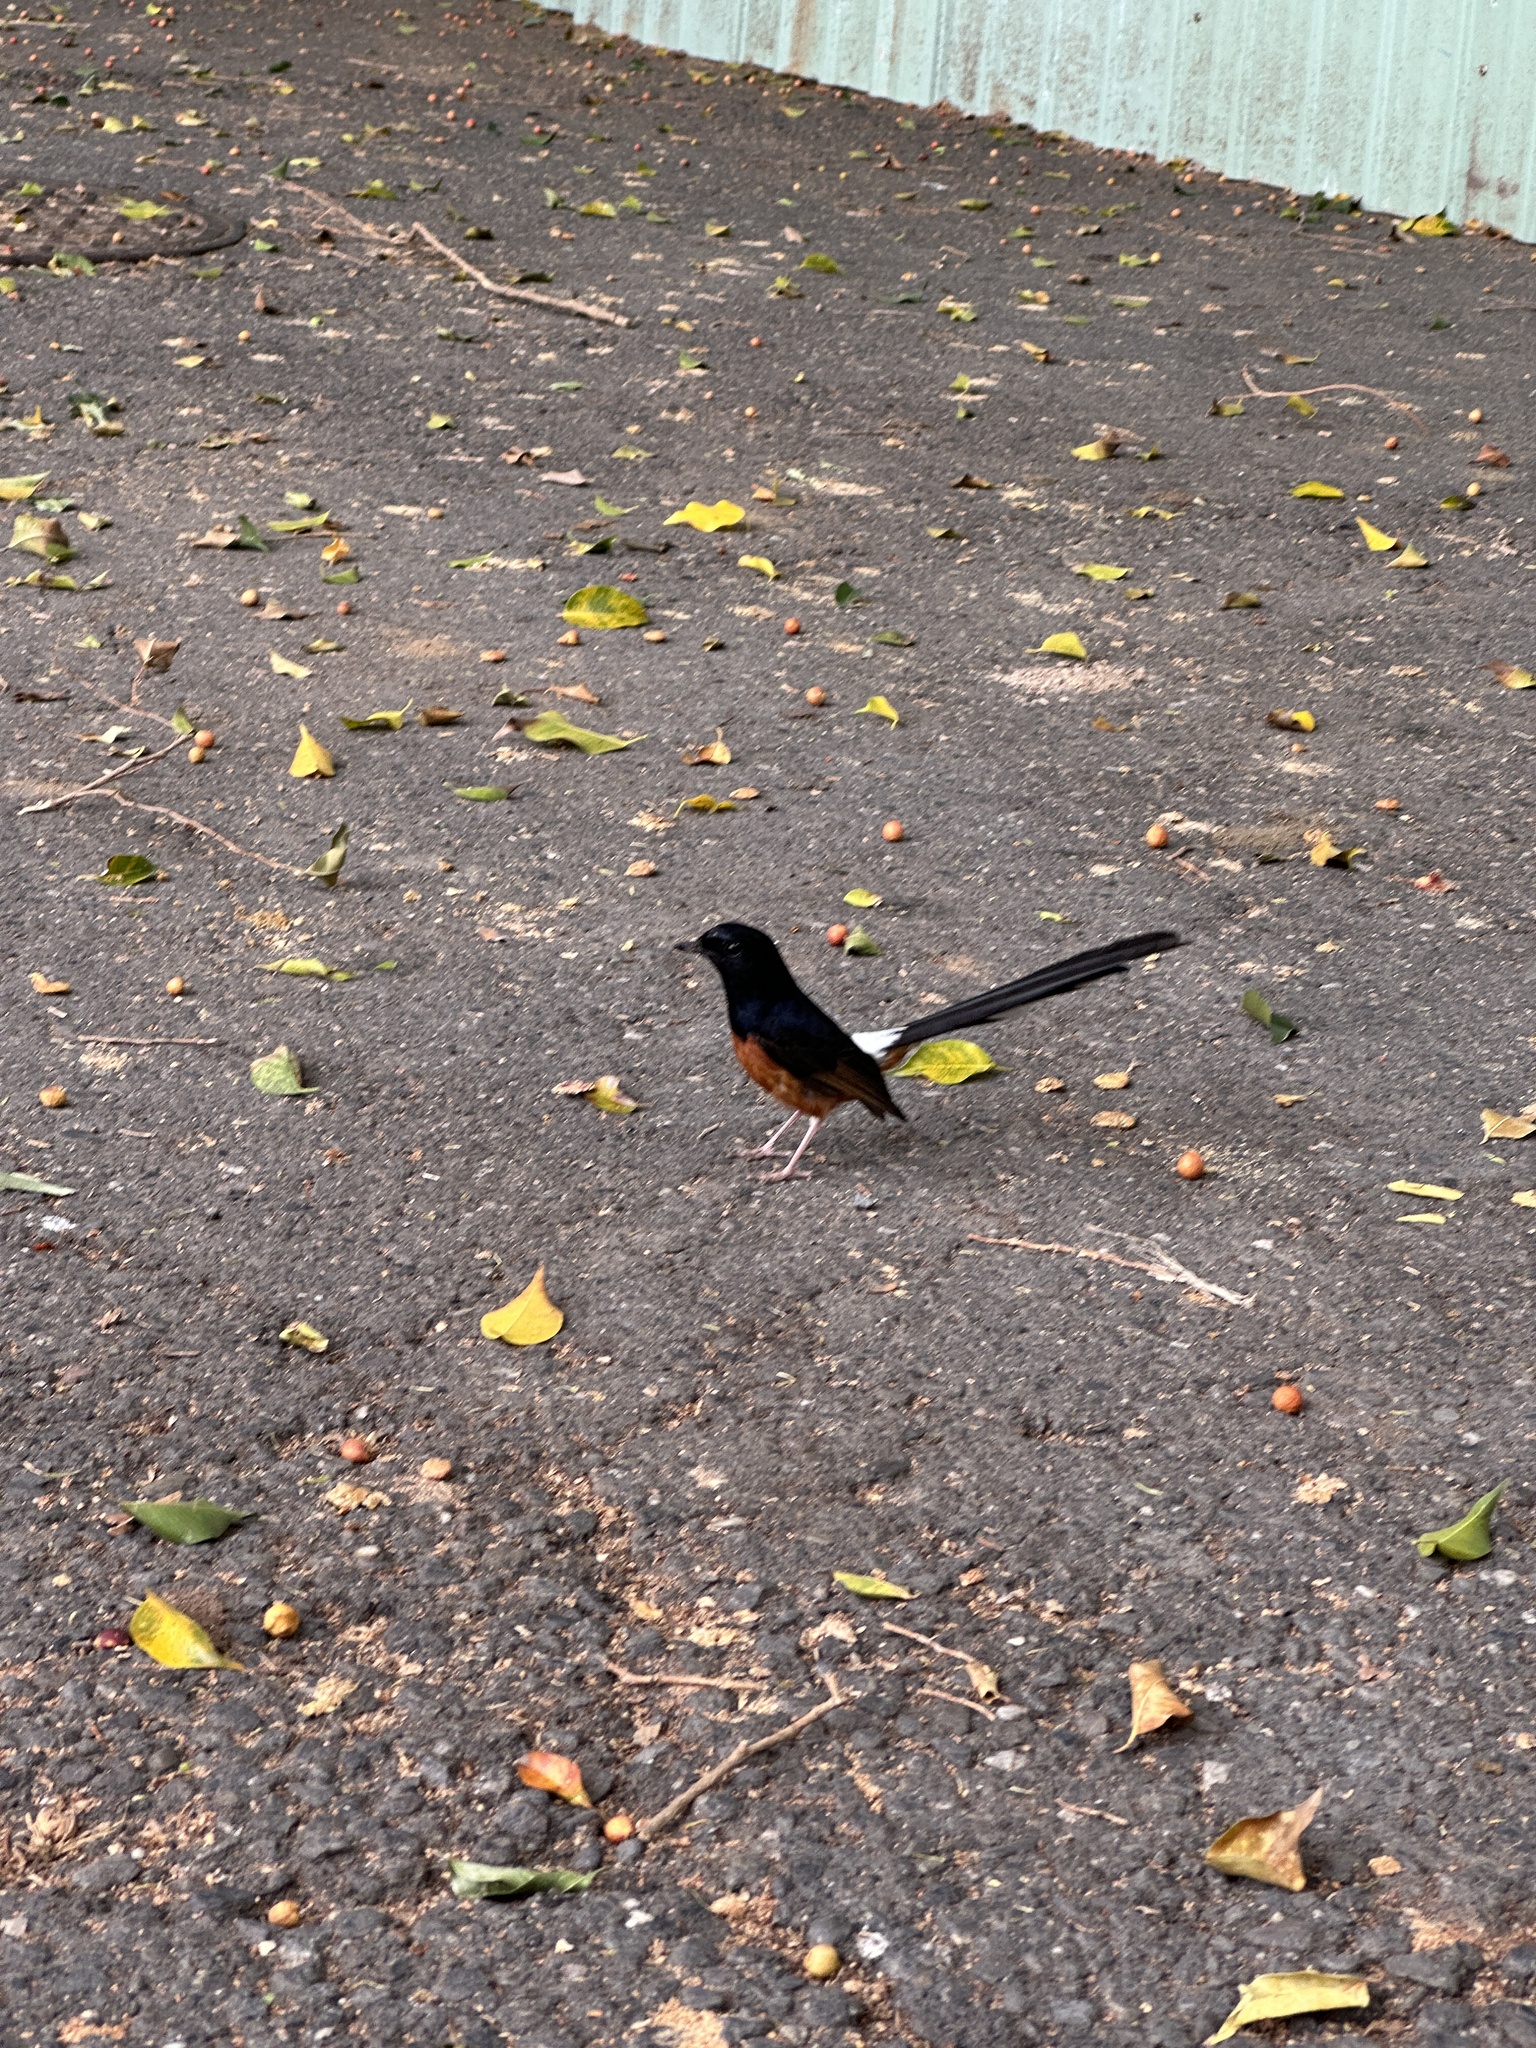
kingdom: Animalia
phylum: Chordata
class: Aves
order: Passeriformes
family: Muscicapidae
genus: Copsychus
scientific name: Copsychus malabaricus
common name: White-rumped shama
